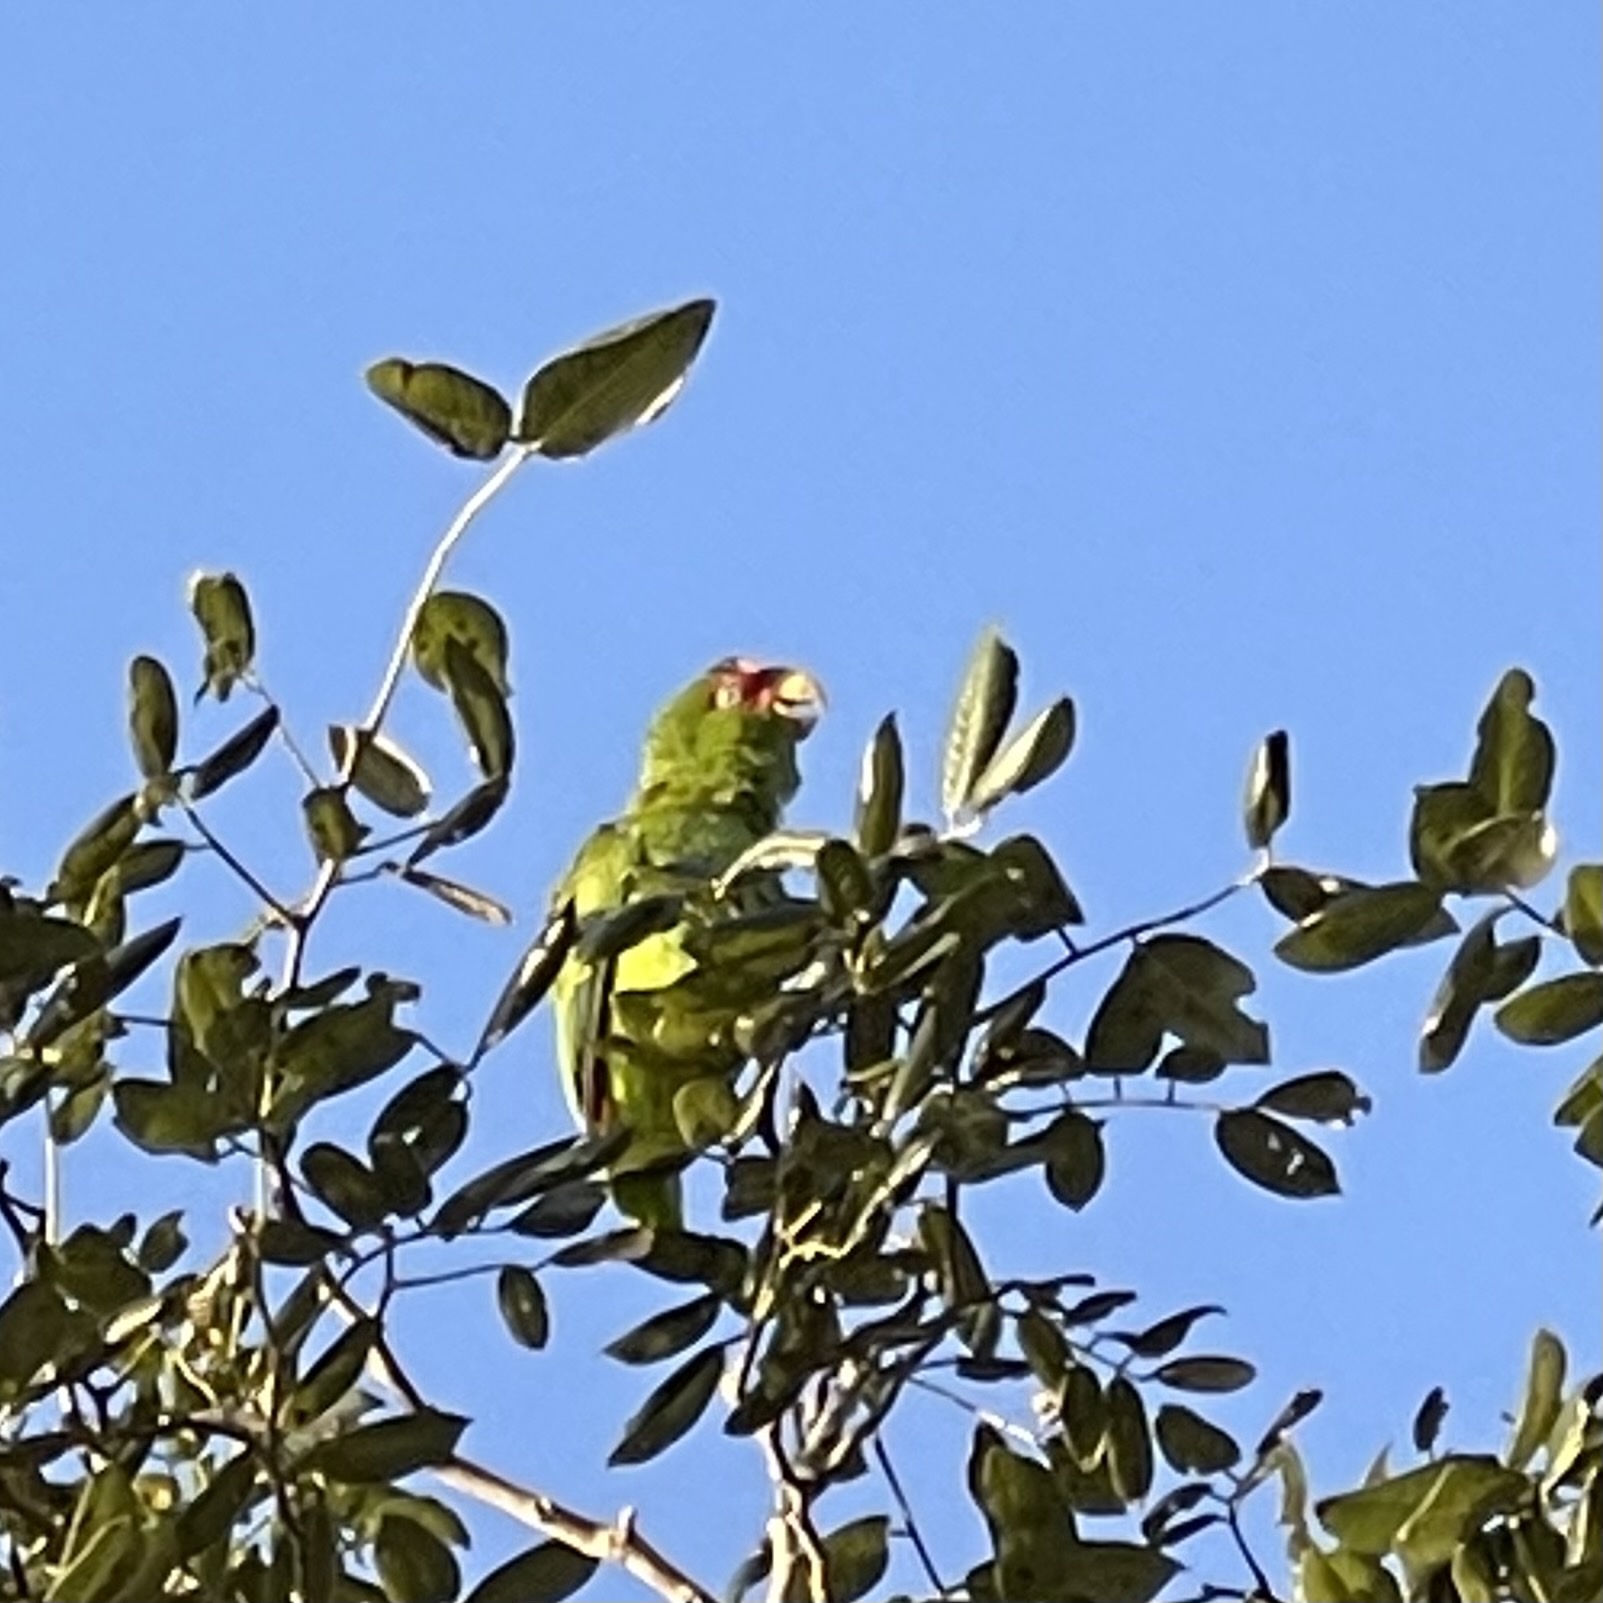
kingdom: Animalia
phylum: Chordata
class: Aves
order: Psittaciformes
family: Psittacidae
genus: Amazona
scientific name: Amazona albifrons
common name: White-fronted amazon
